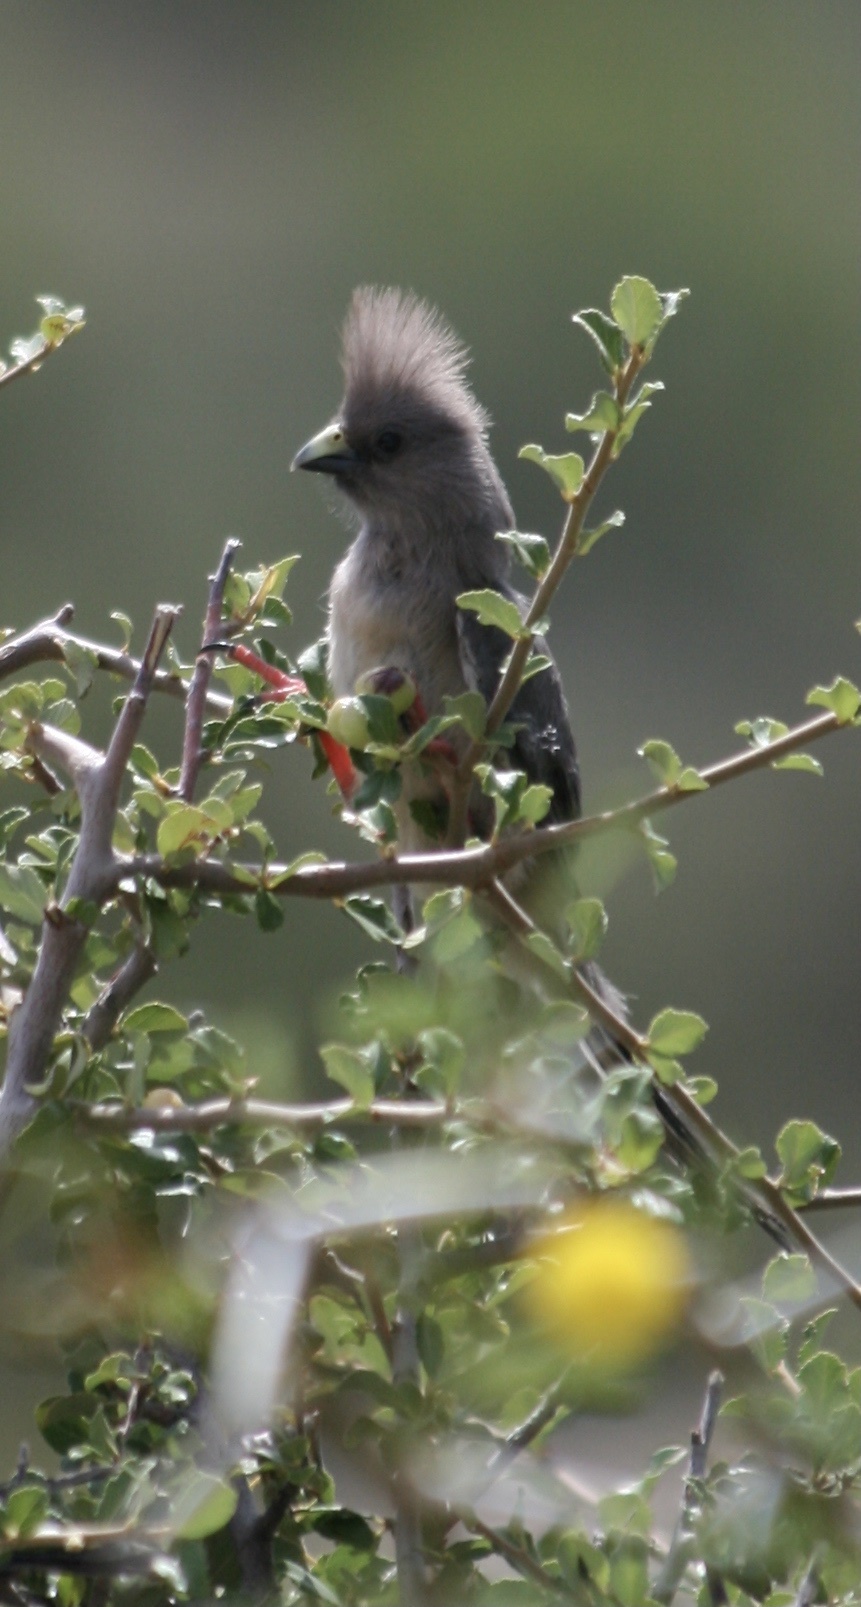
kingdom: Animalia
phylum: Chordata
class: Aves
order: Coliiformes
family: Coliidae
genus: Colius
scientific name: Colius colius
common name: White-backed mousebird
